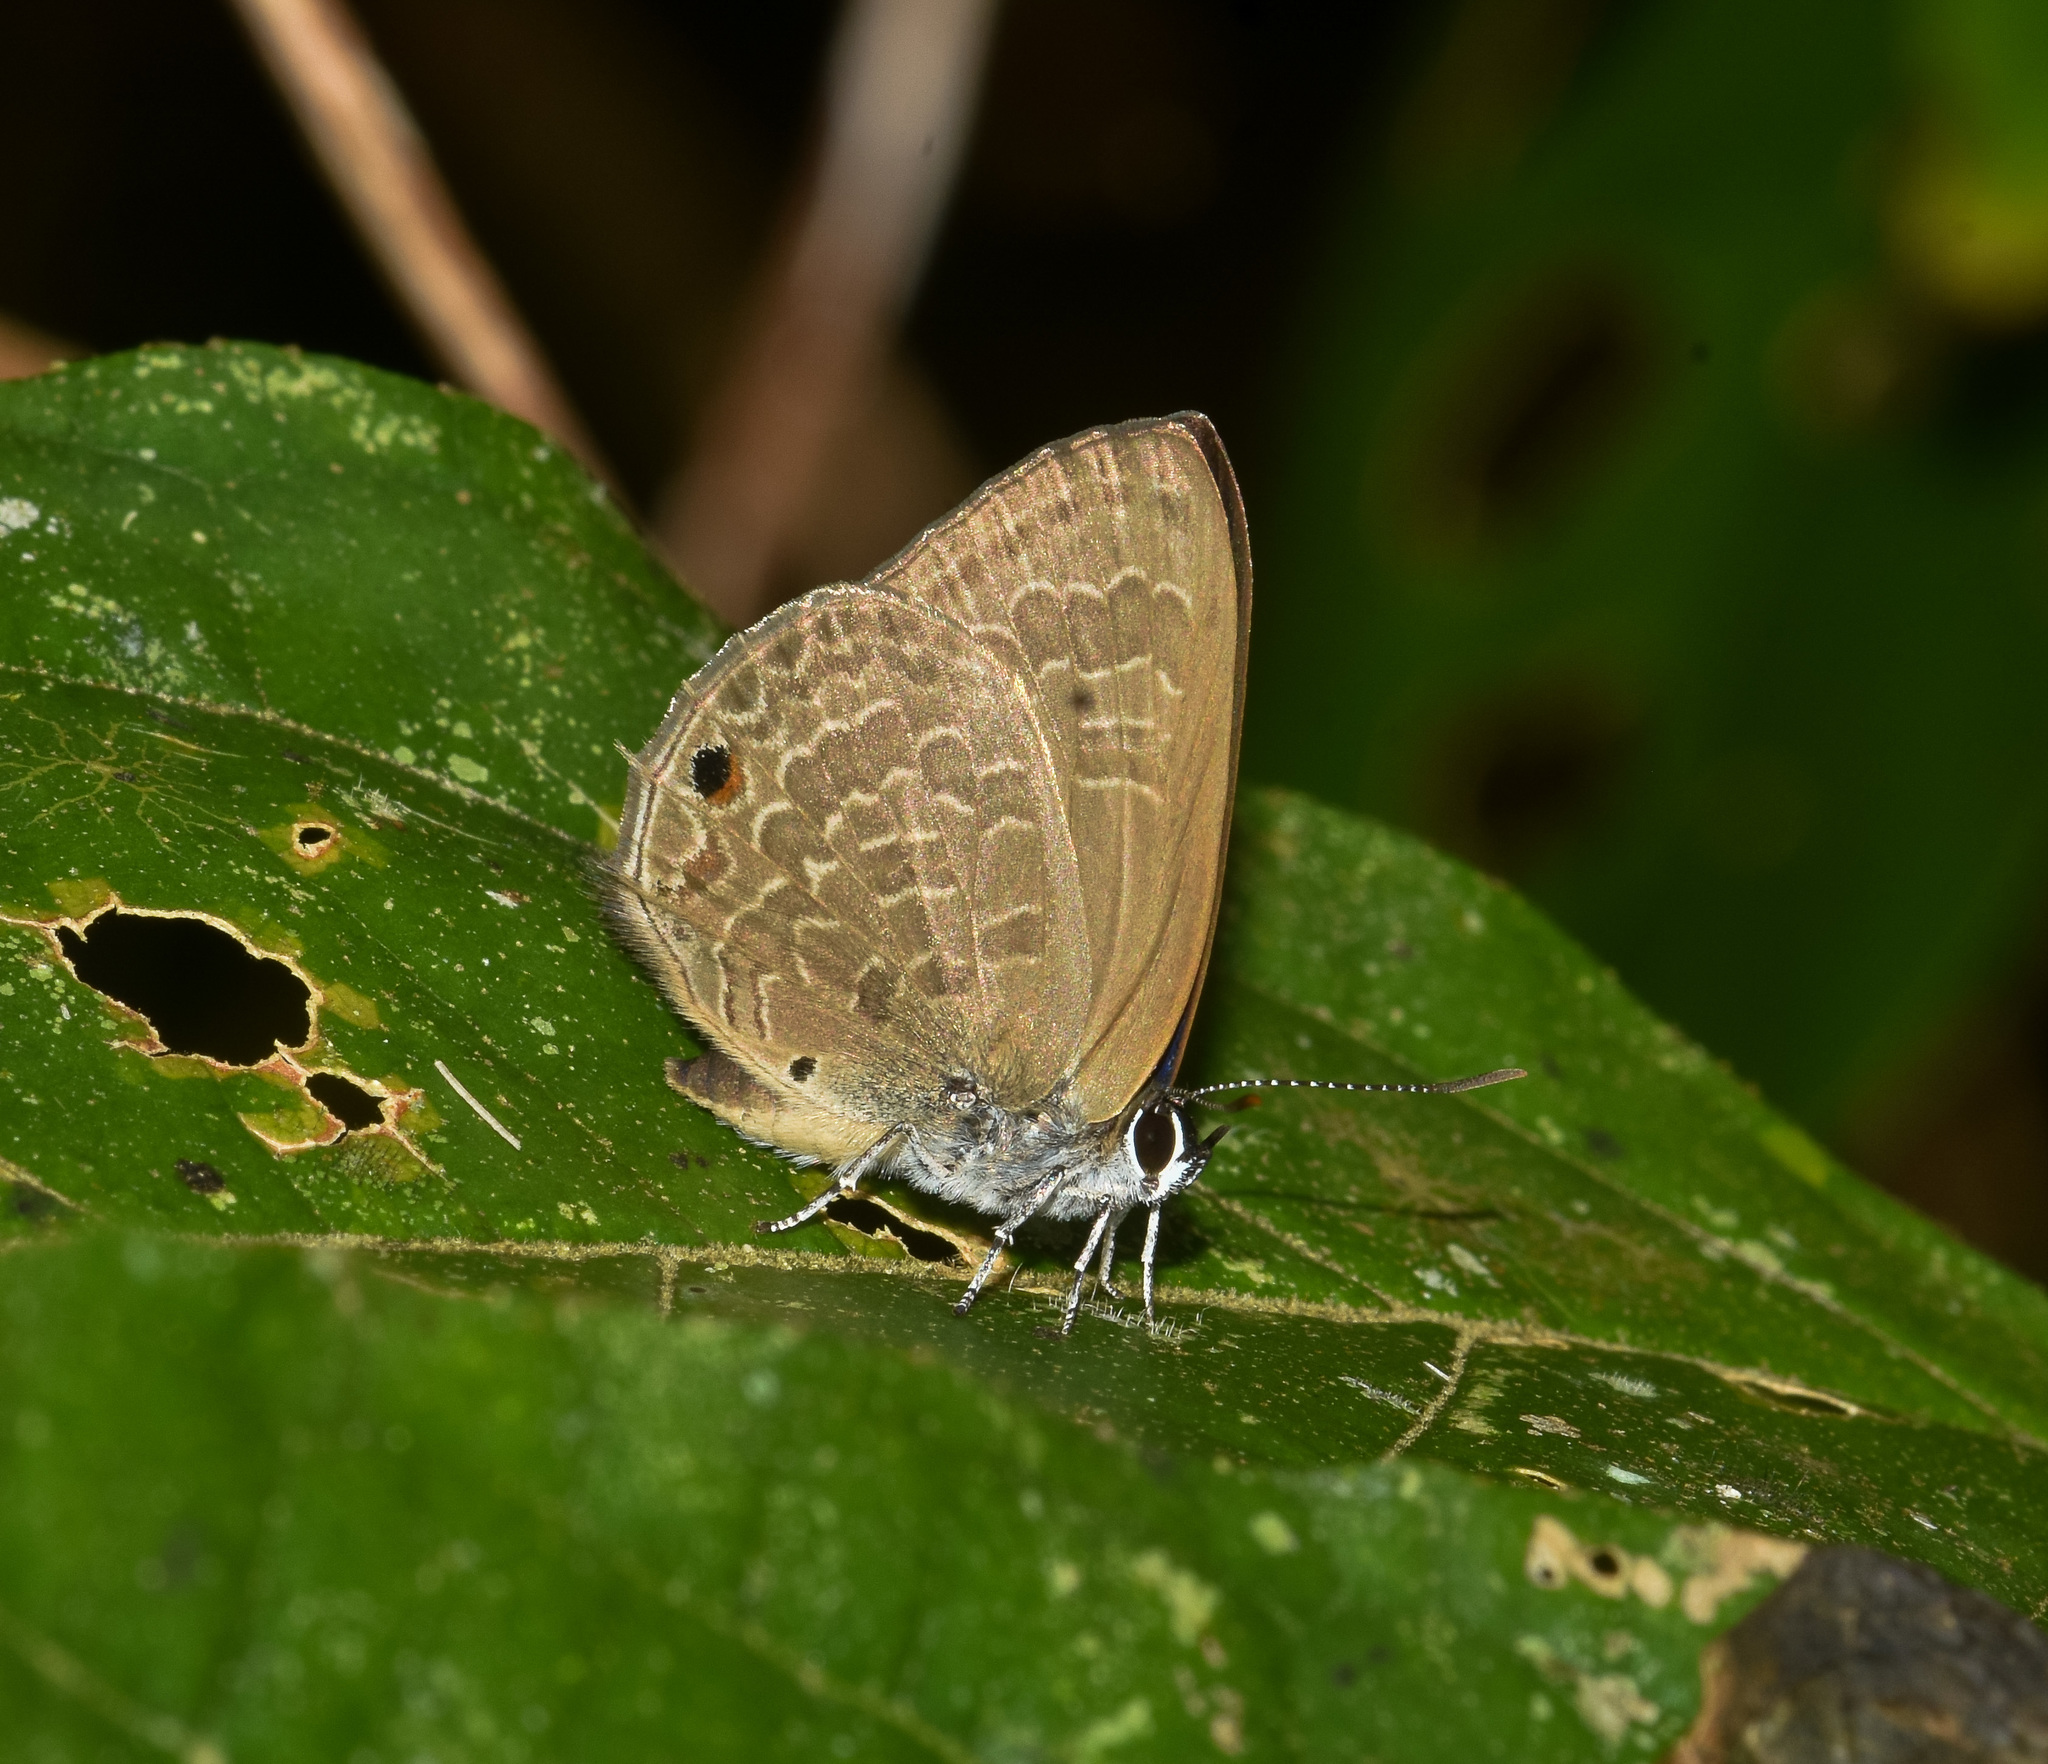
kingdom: Animalia
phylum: Arthropoda
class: Insecta
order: Lepidoptera
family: Lycaenidae
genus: Anthene
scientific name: Anthene emolus
